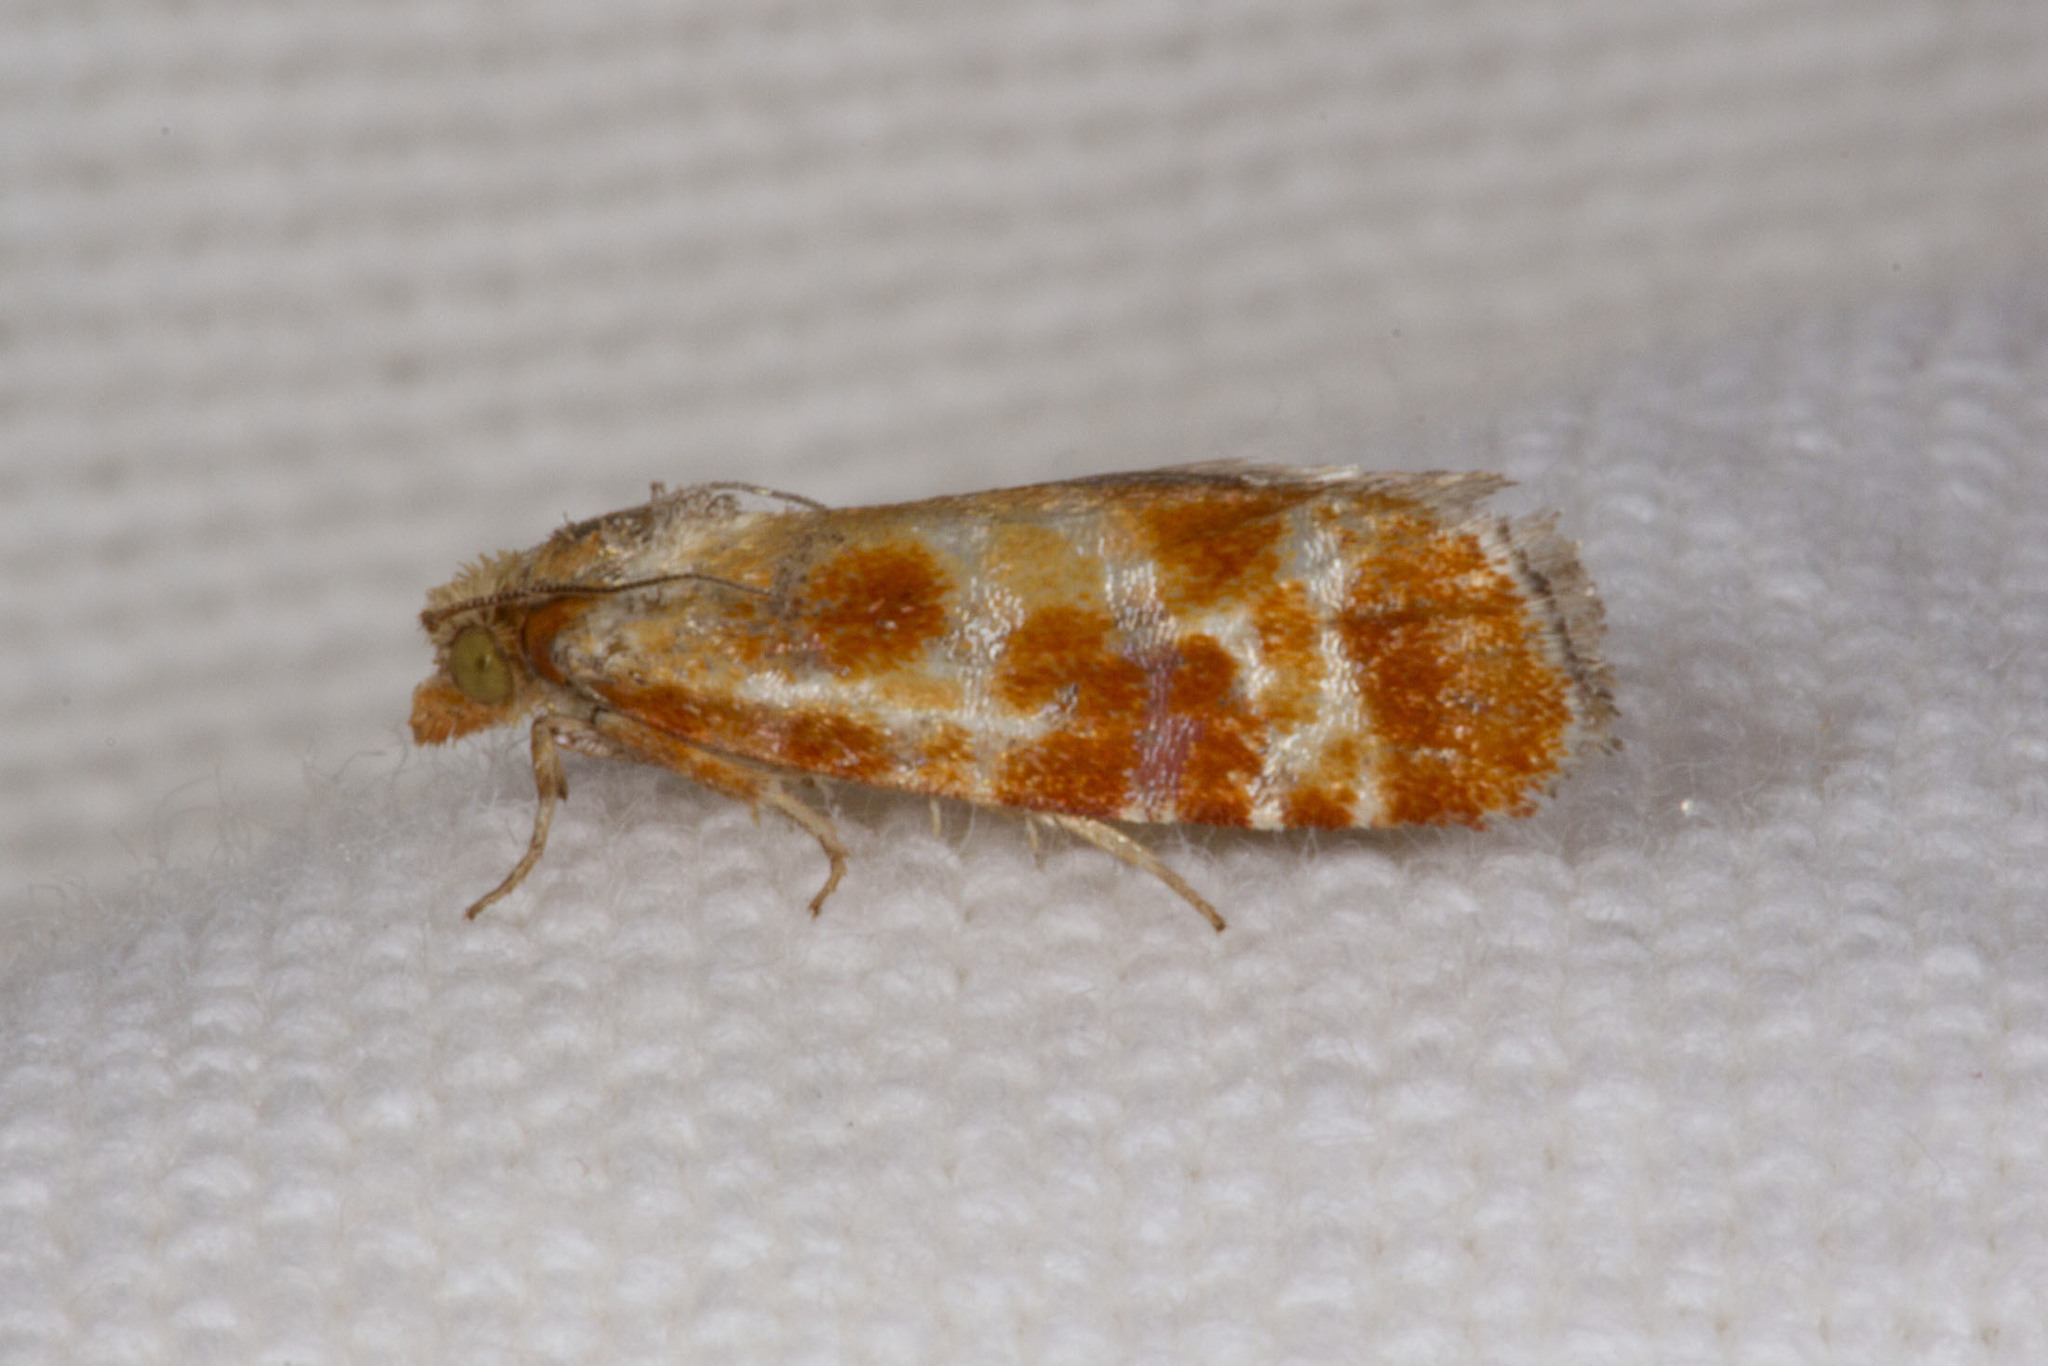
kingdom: Animalia
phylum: Arthropoda
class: Insecta
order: Lepidoptera
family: Tortricidae
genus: Rhyacionia
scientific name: Rhyacionia buoliana
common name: European pine shoot moth
